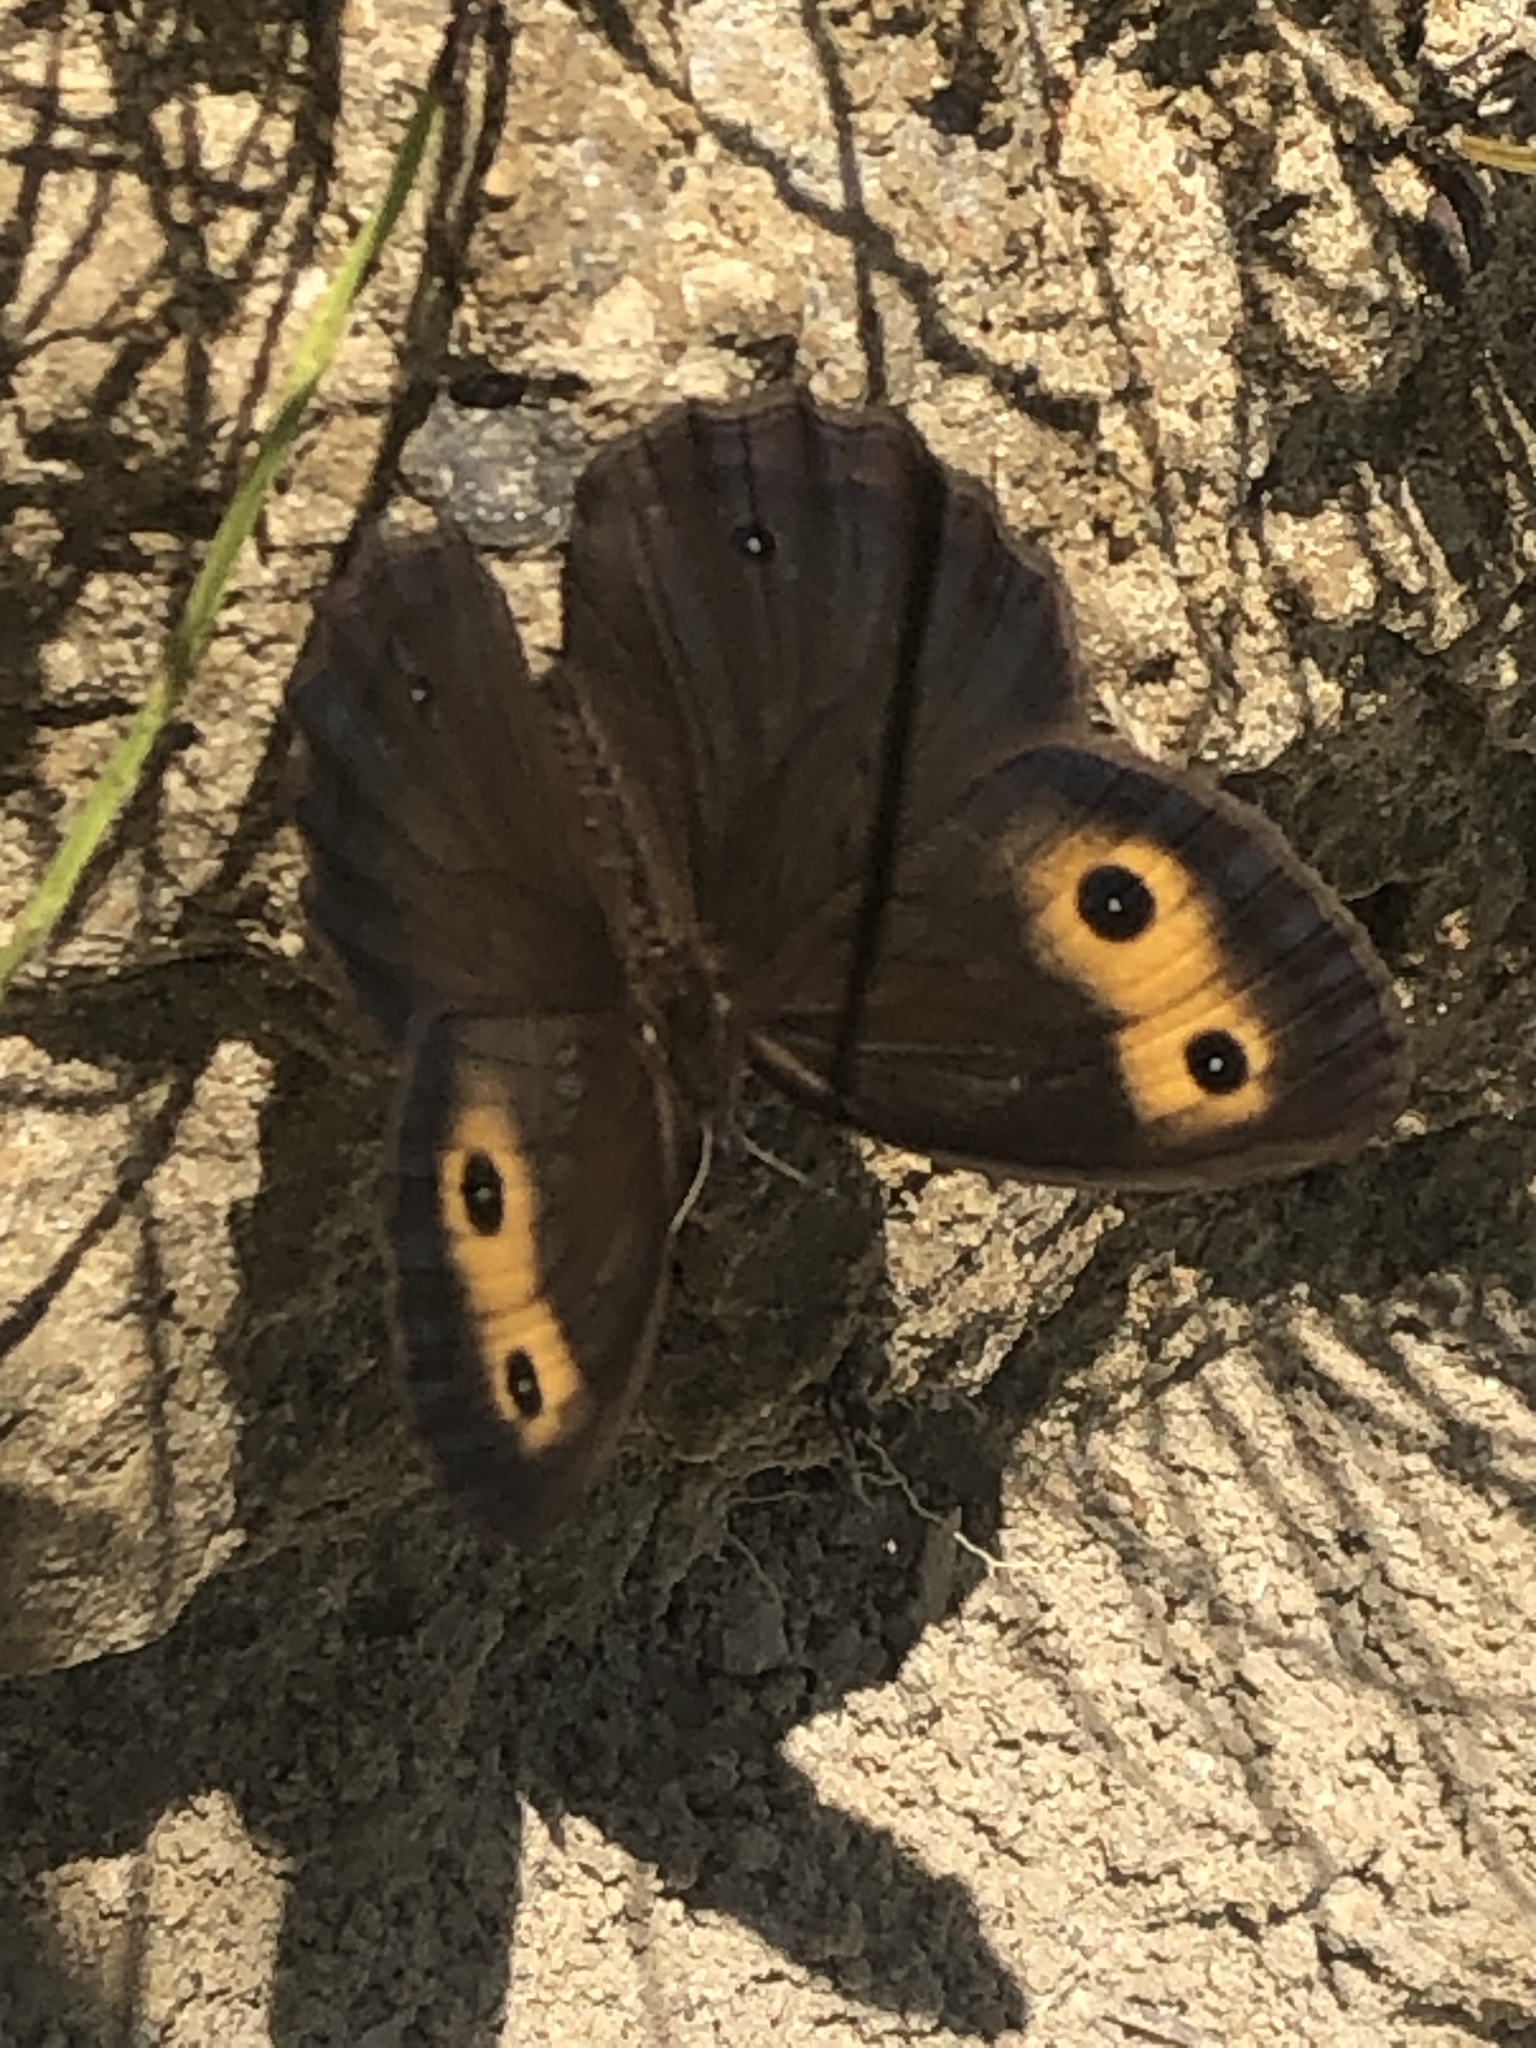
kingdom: Animalia
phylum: Arthropoda
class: Insecta
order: Lepidoptera
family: Nymphalidae
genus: Cercyonis
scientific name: Cercyonis pegala
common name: Common wood-nymph
